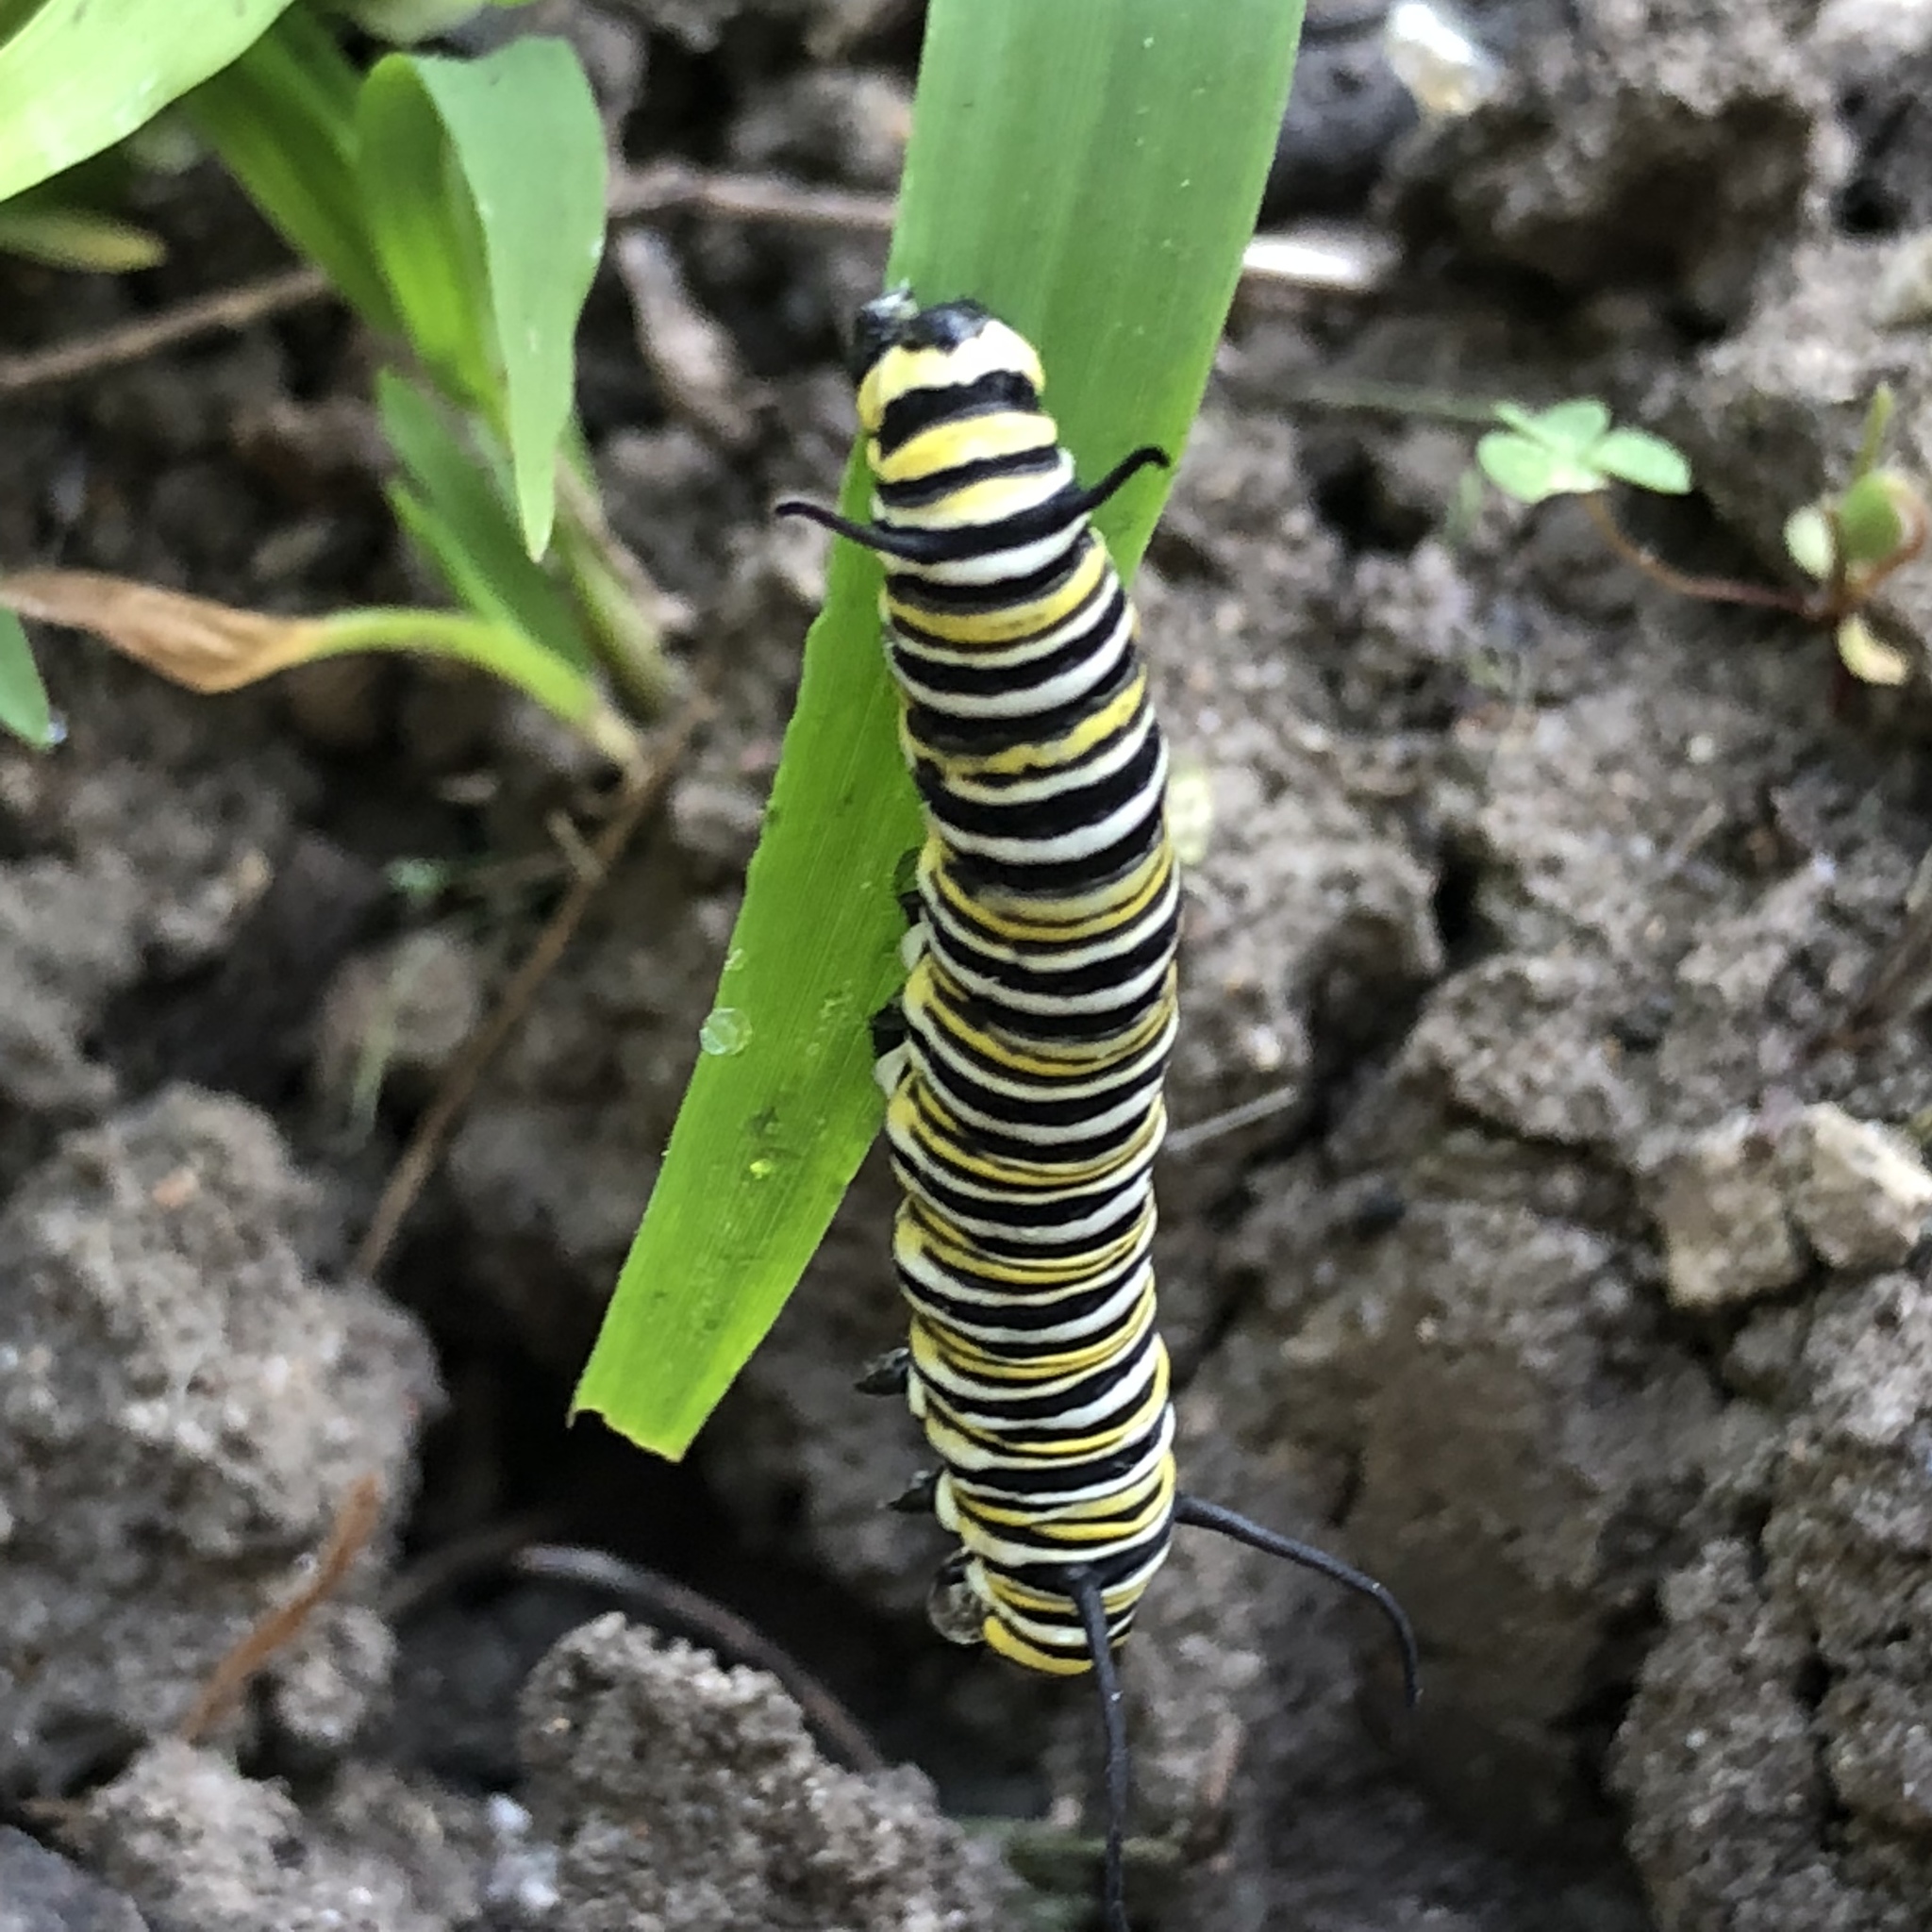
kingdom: Animalia
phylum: Arthropoda
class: Insecta
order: Lepidoptera
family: Nymphalidae
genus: Danaus
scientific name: Danaus plexippus
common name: Monarch
